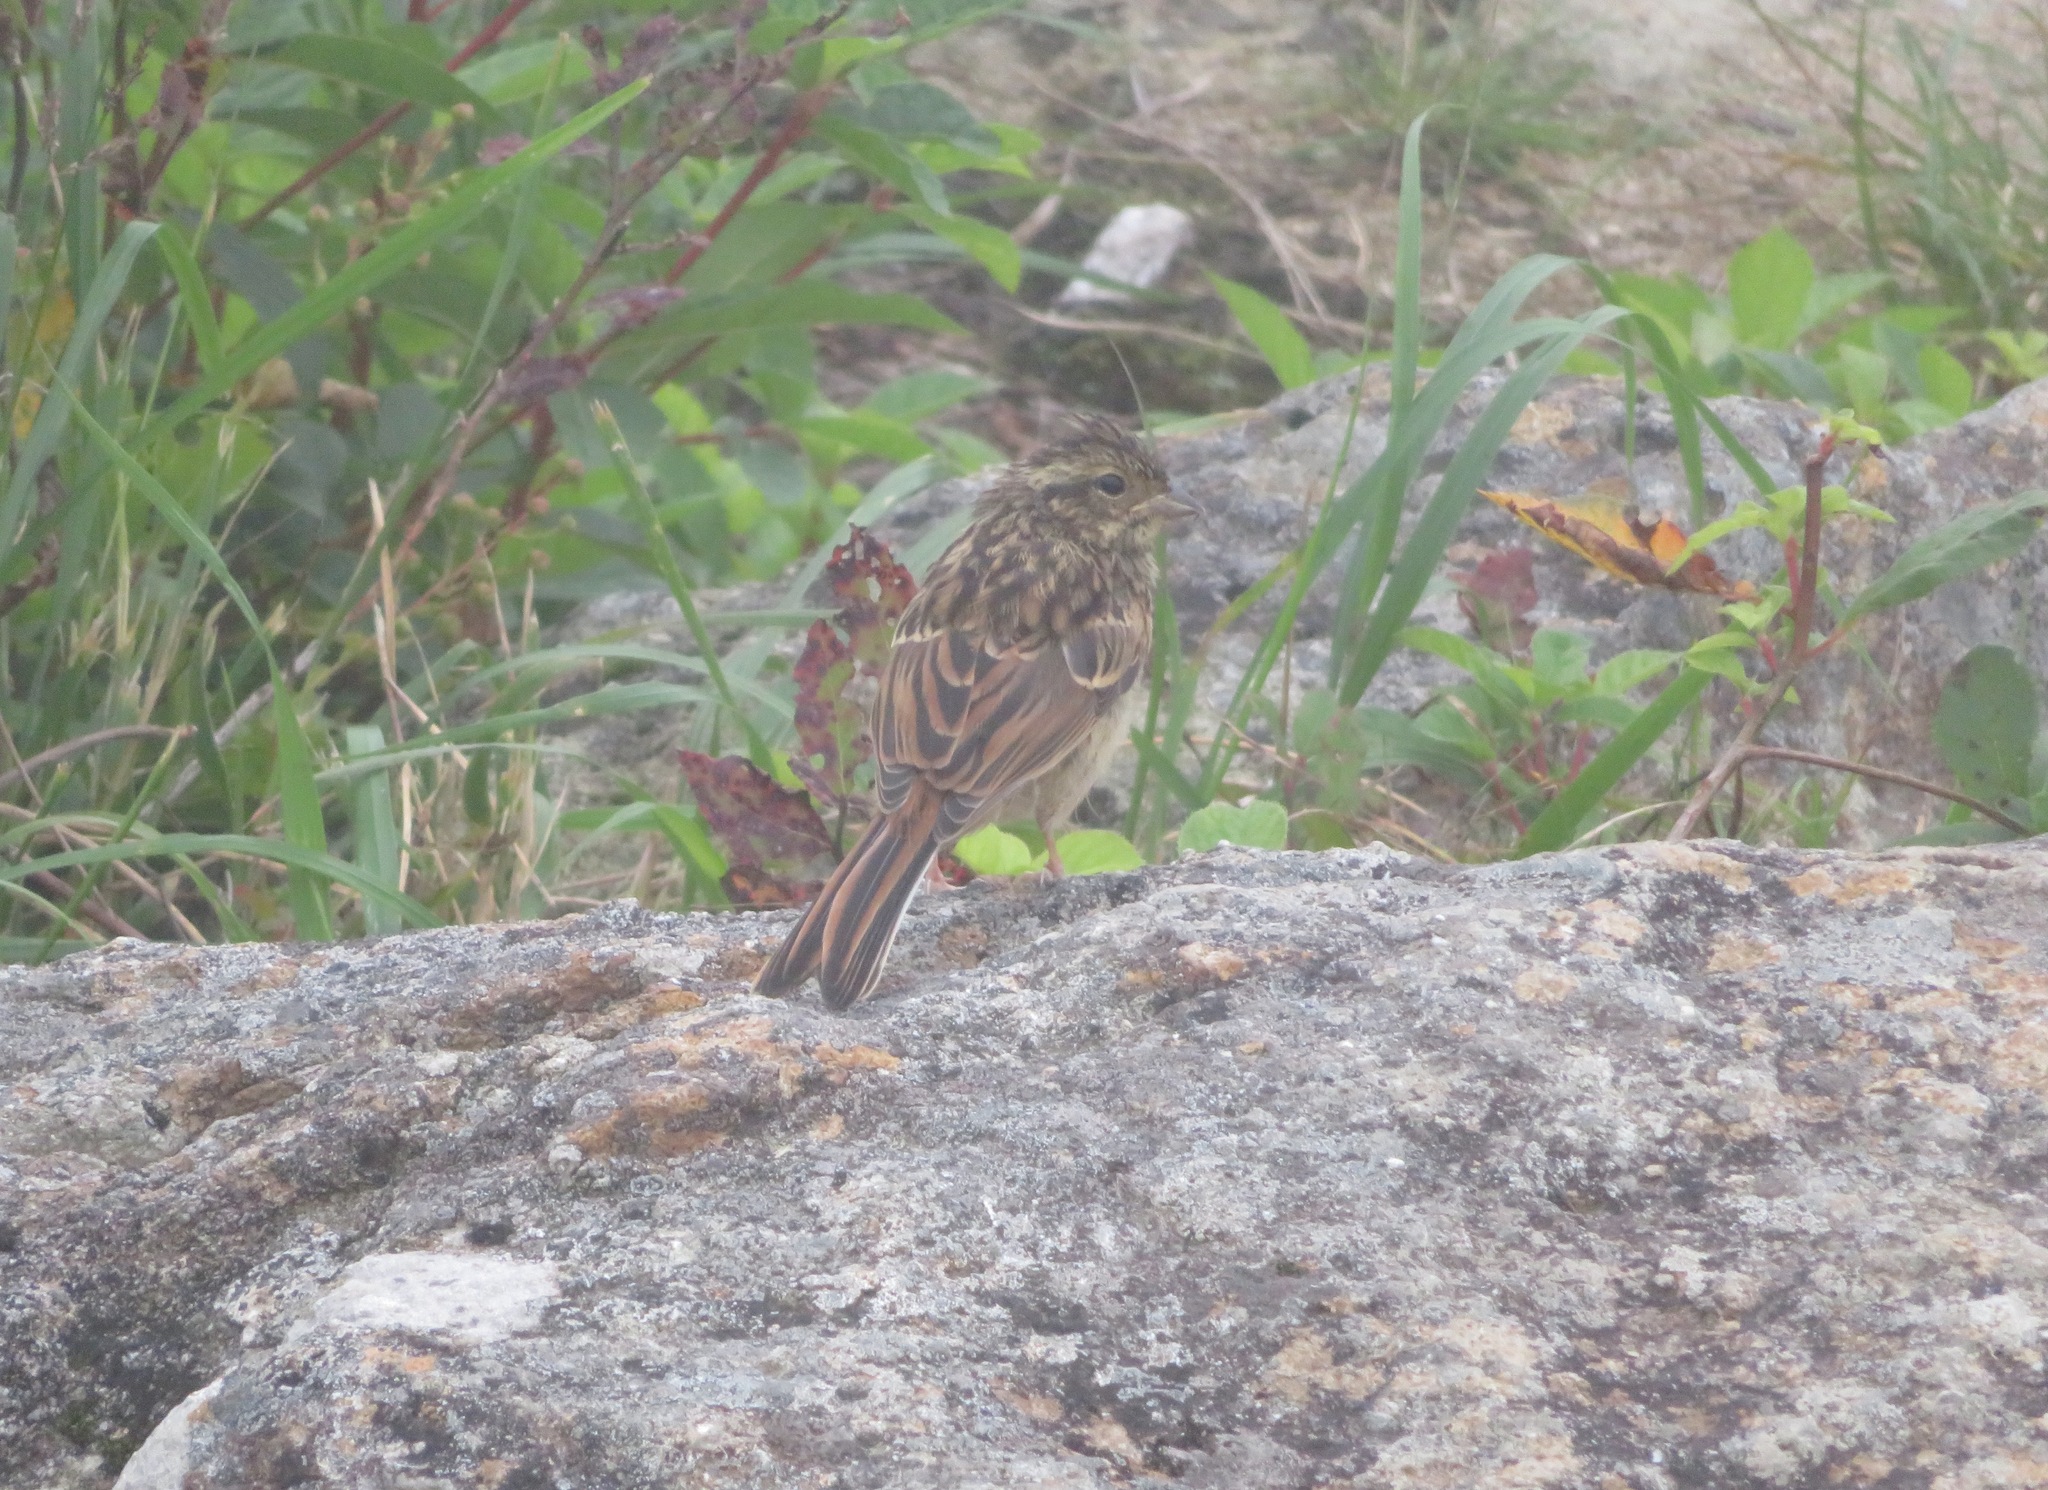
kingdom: Animalia
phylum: Chordata
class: Aves
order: Passeriformes
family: Emberizidae
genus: Emberiza
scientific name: Emberiza variabilis
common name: Gray bunting
